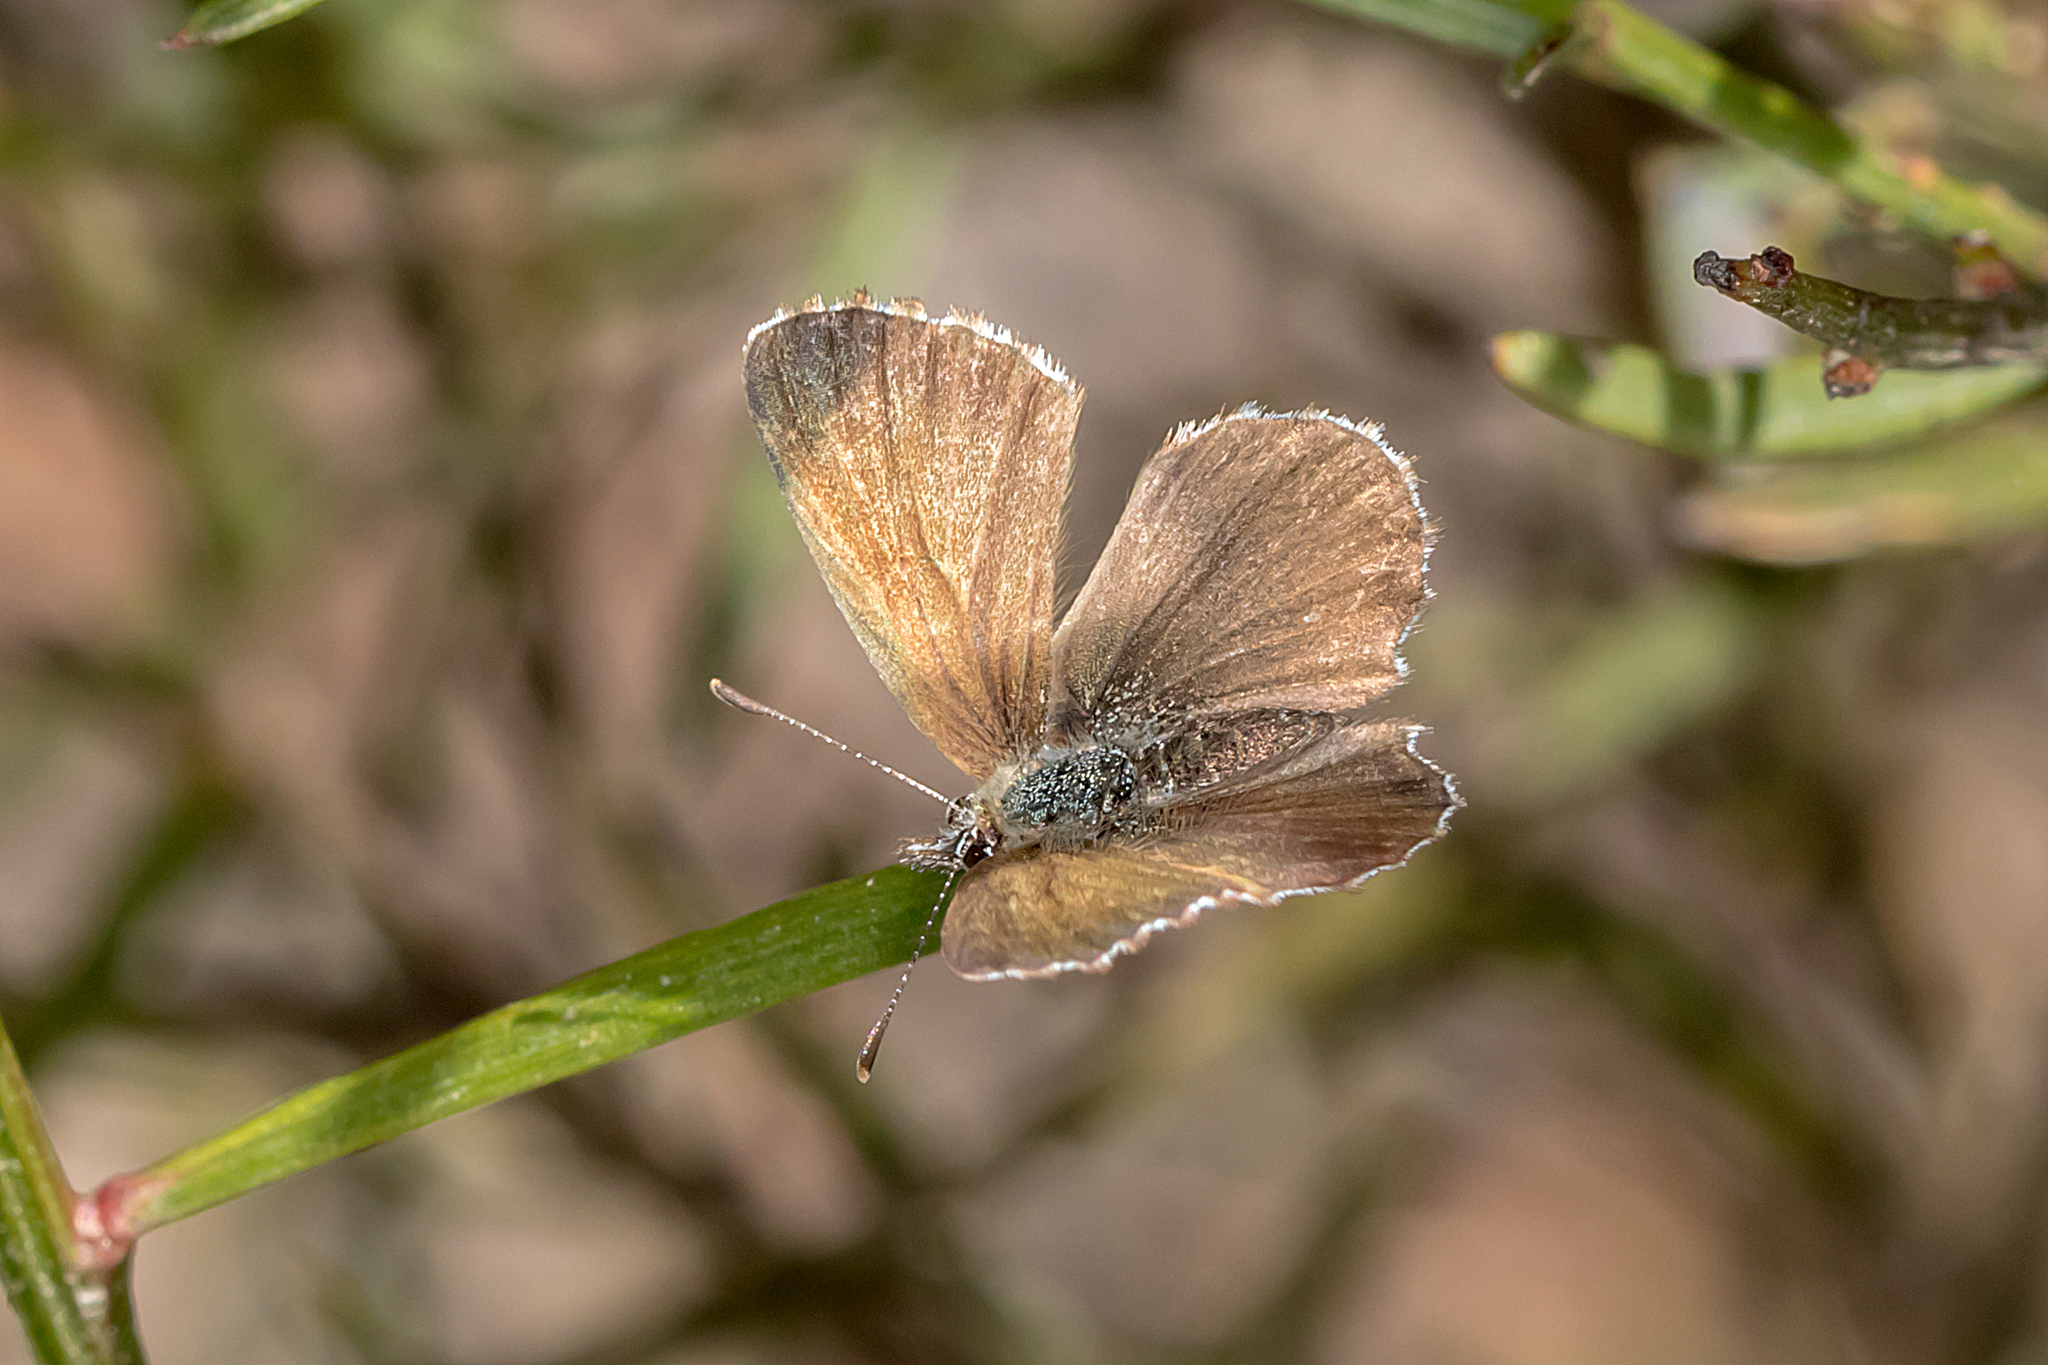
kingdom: Animalia
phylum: Arthropoda
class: Insecta
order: Lepidoptera
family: Lycaenidae
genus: Neolucia
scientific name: Neolucia agricola
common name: Fringed blue
